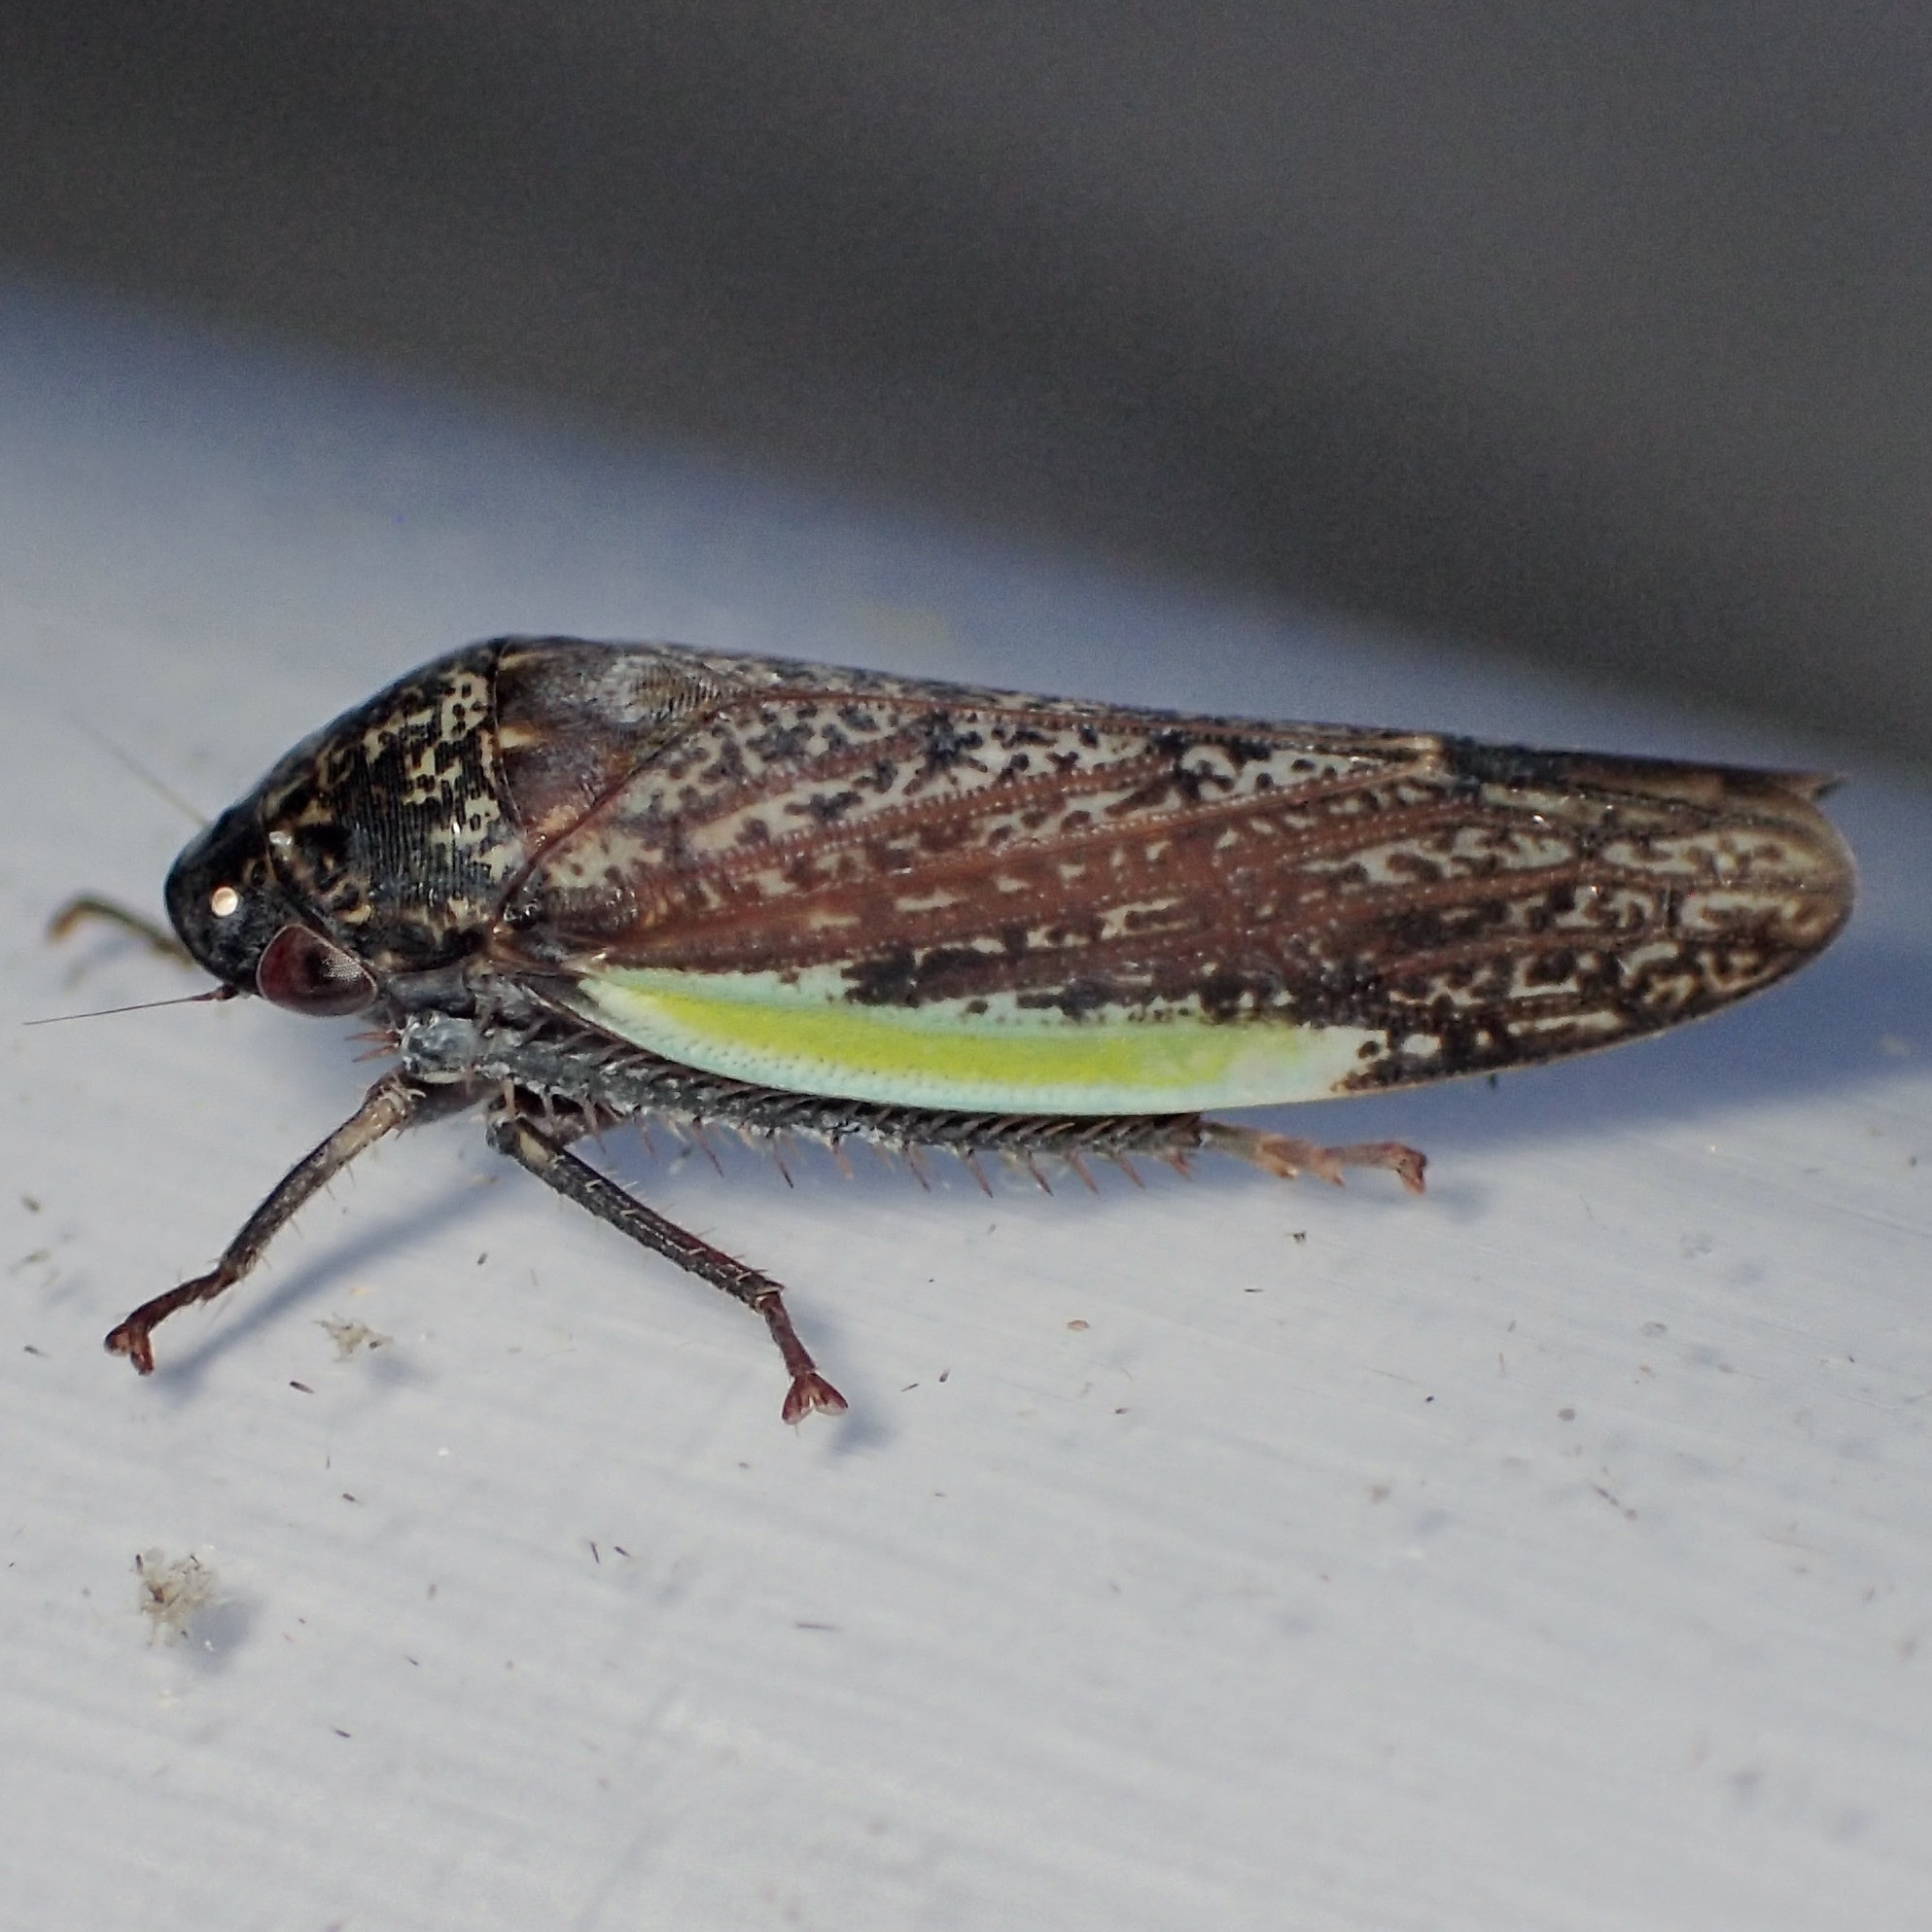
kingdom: Animalia
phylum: Arthropoda
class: Insecta
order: Hemiptera
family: Cicadellidae
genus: Hamana
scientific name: Hamana gelbata
